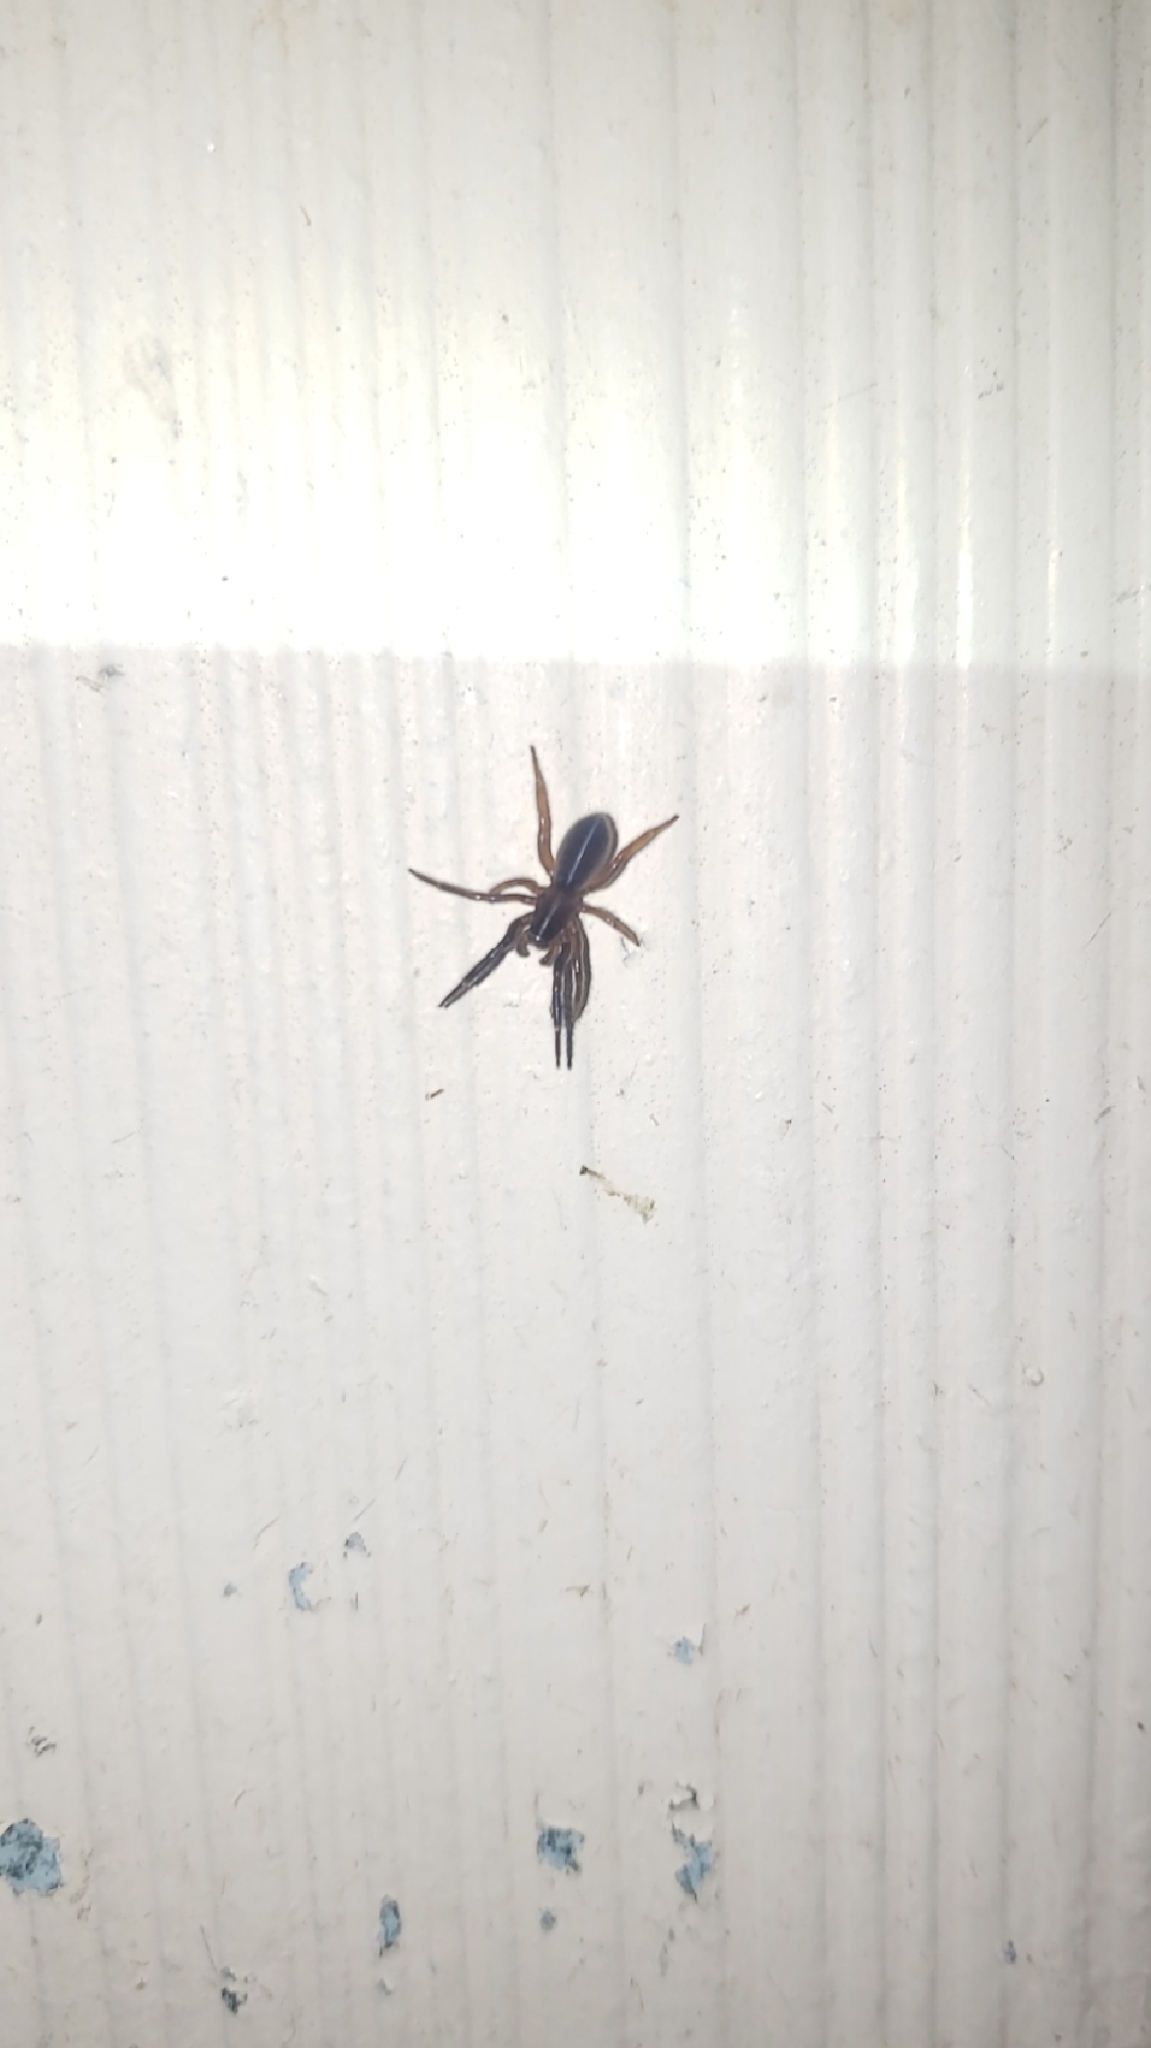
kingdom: Animalia
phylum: Arthropoda
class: Arachnida
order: Araneae
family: Segestriidae
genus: Ariadna
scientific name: Ariadna bicolor
